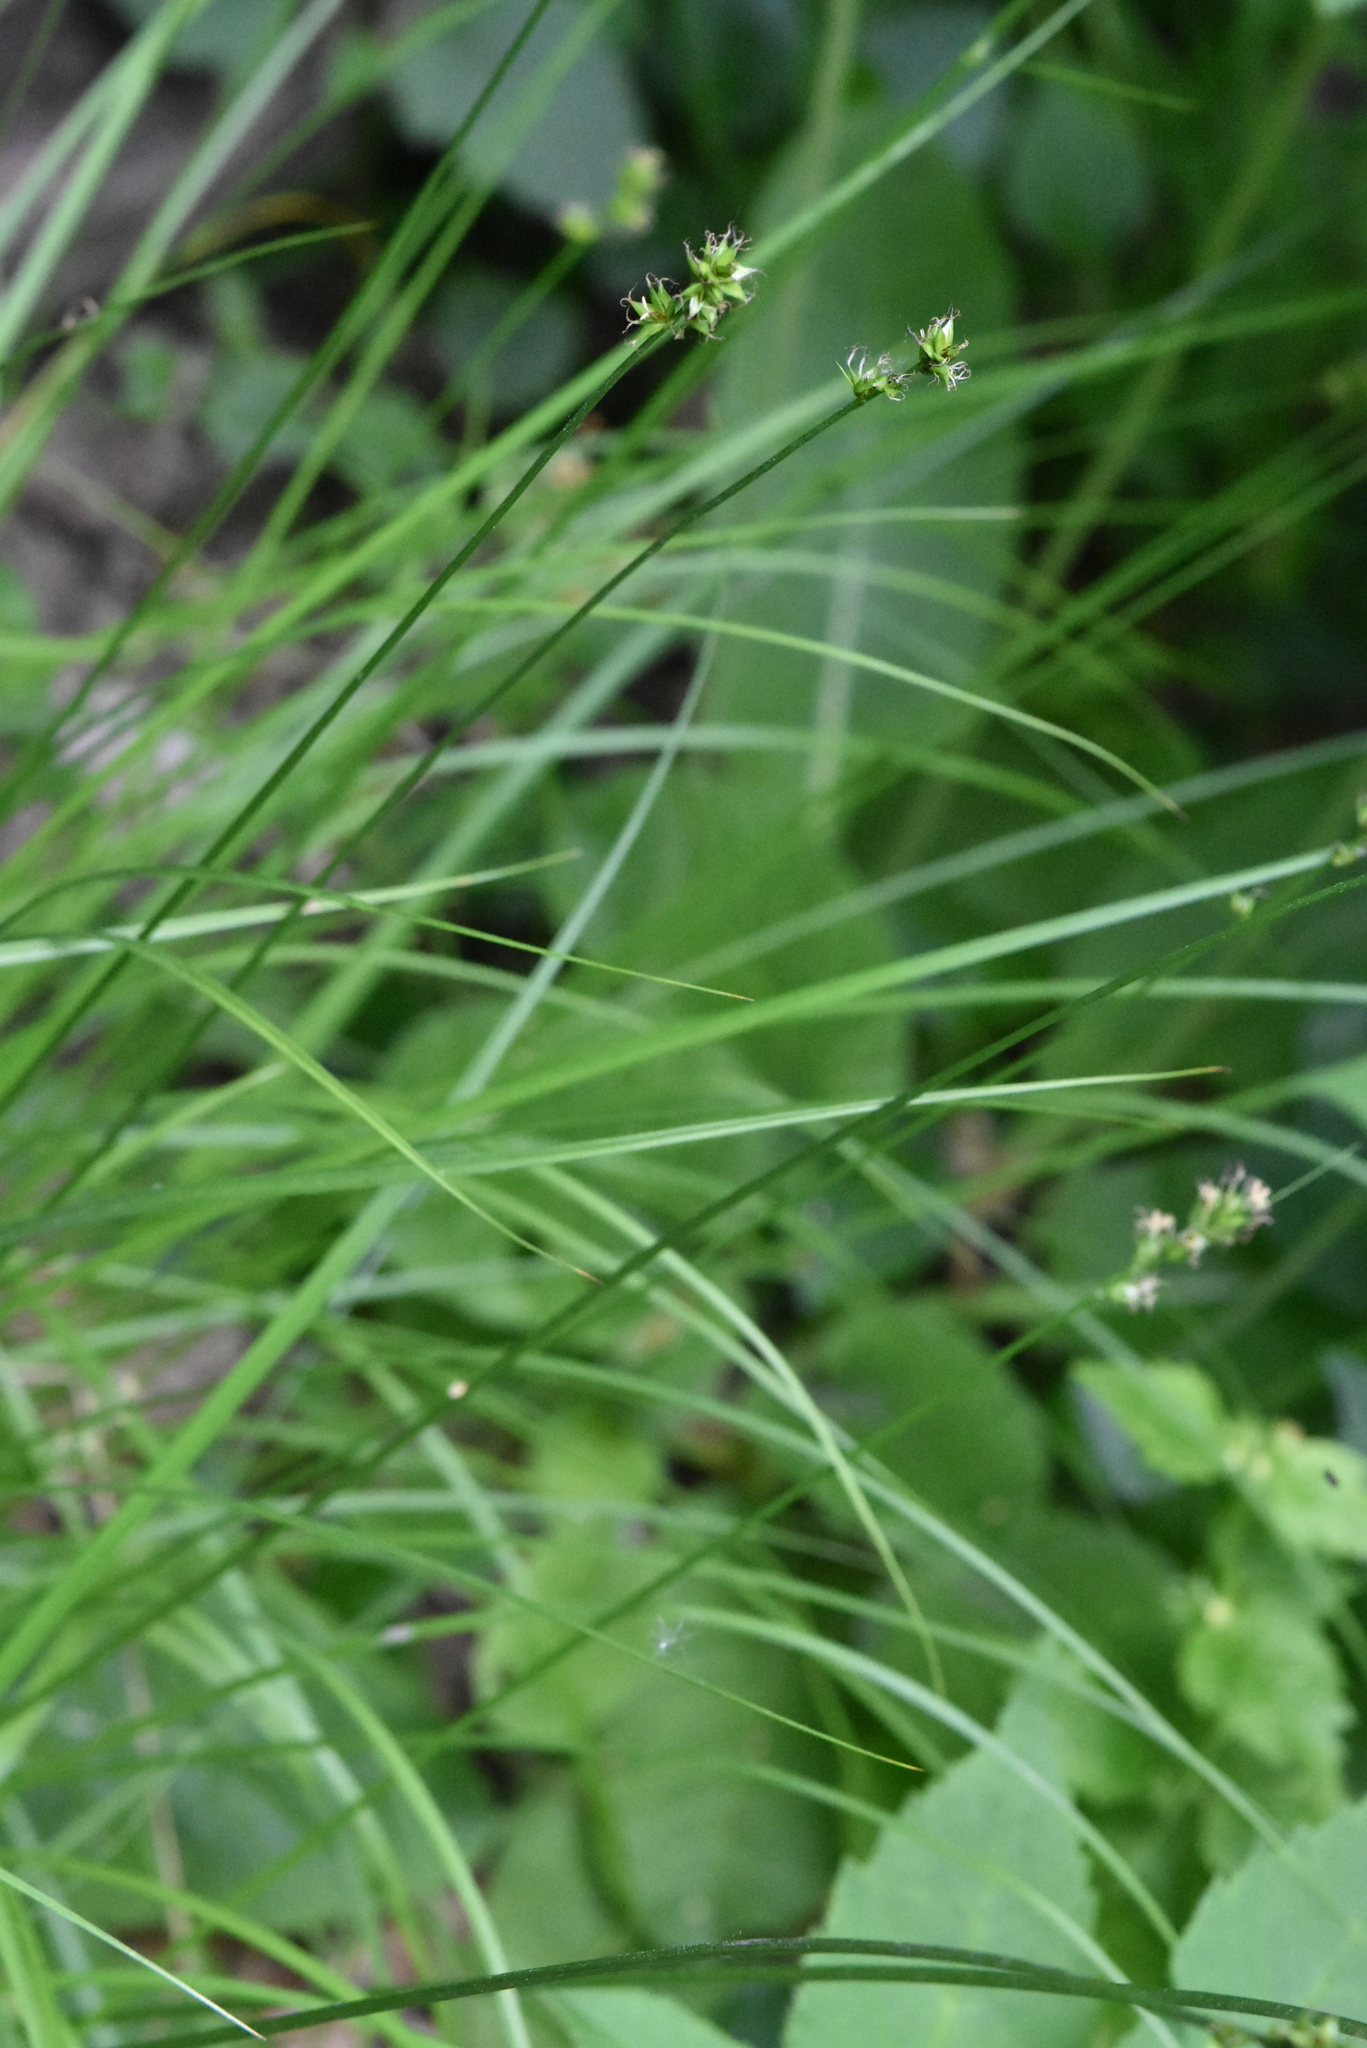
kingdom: Plantae
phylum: Tracheophyta
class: Liliopsida
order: Poales
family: Cyperaceae
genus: Carex
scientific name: Carex spicata
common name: Spiked sedge
